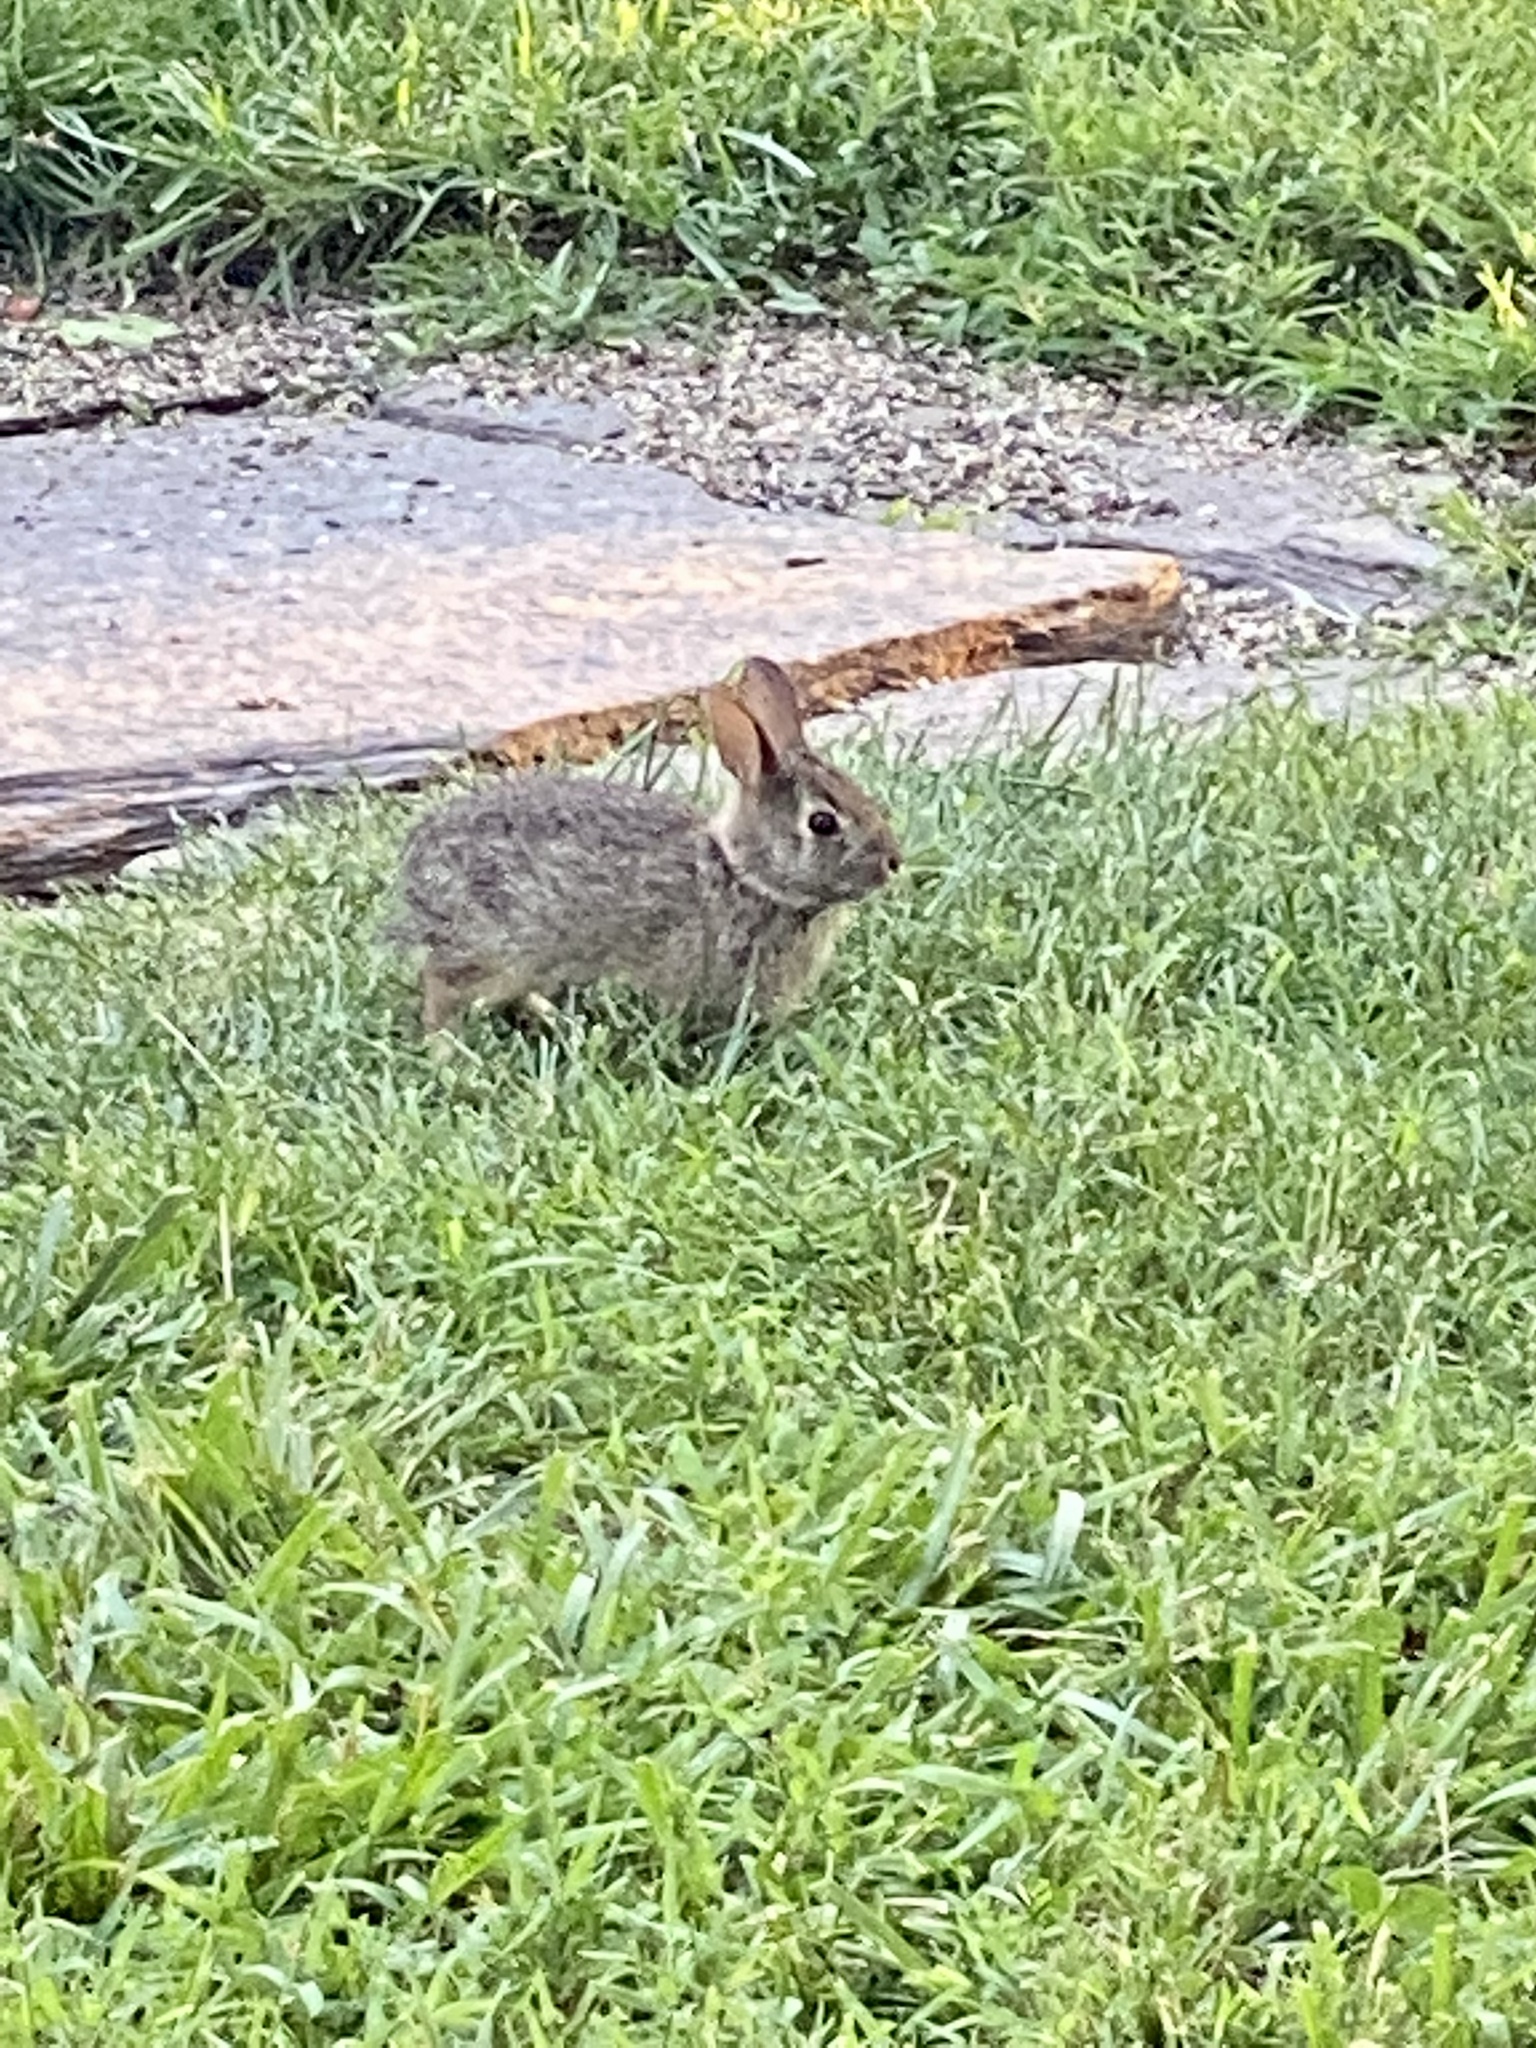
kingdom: Animalia
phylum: Chordata
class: Mammalia
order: Lagomorpha
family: Leporidae
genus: Sylvilagus
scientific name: Sylvilagus floridanus
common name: Eastern cottontail
